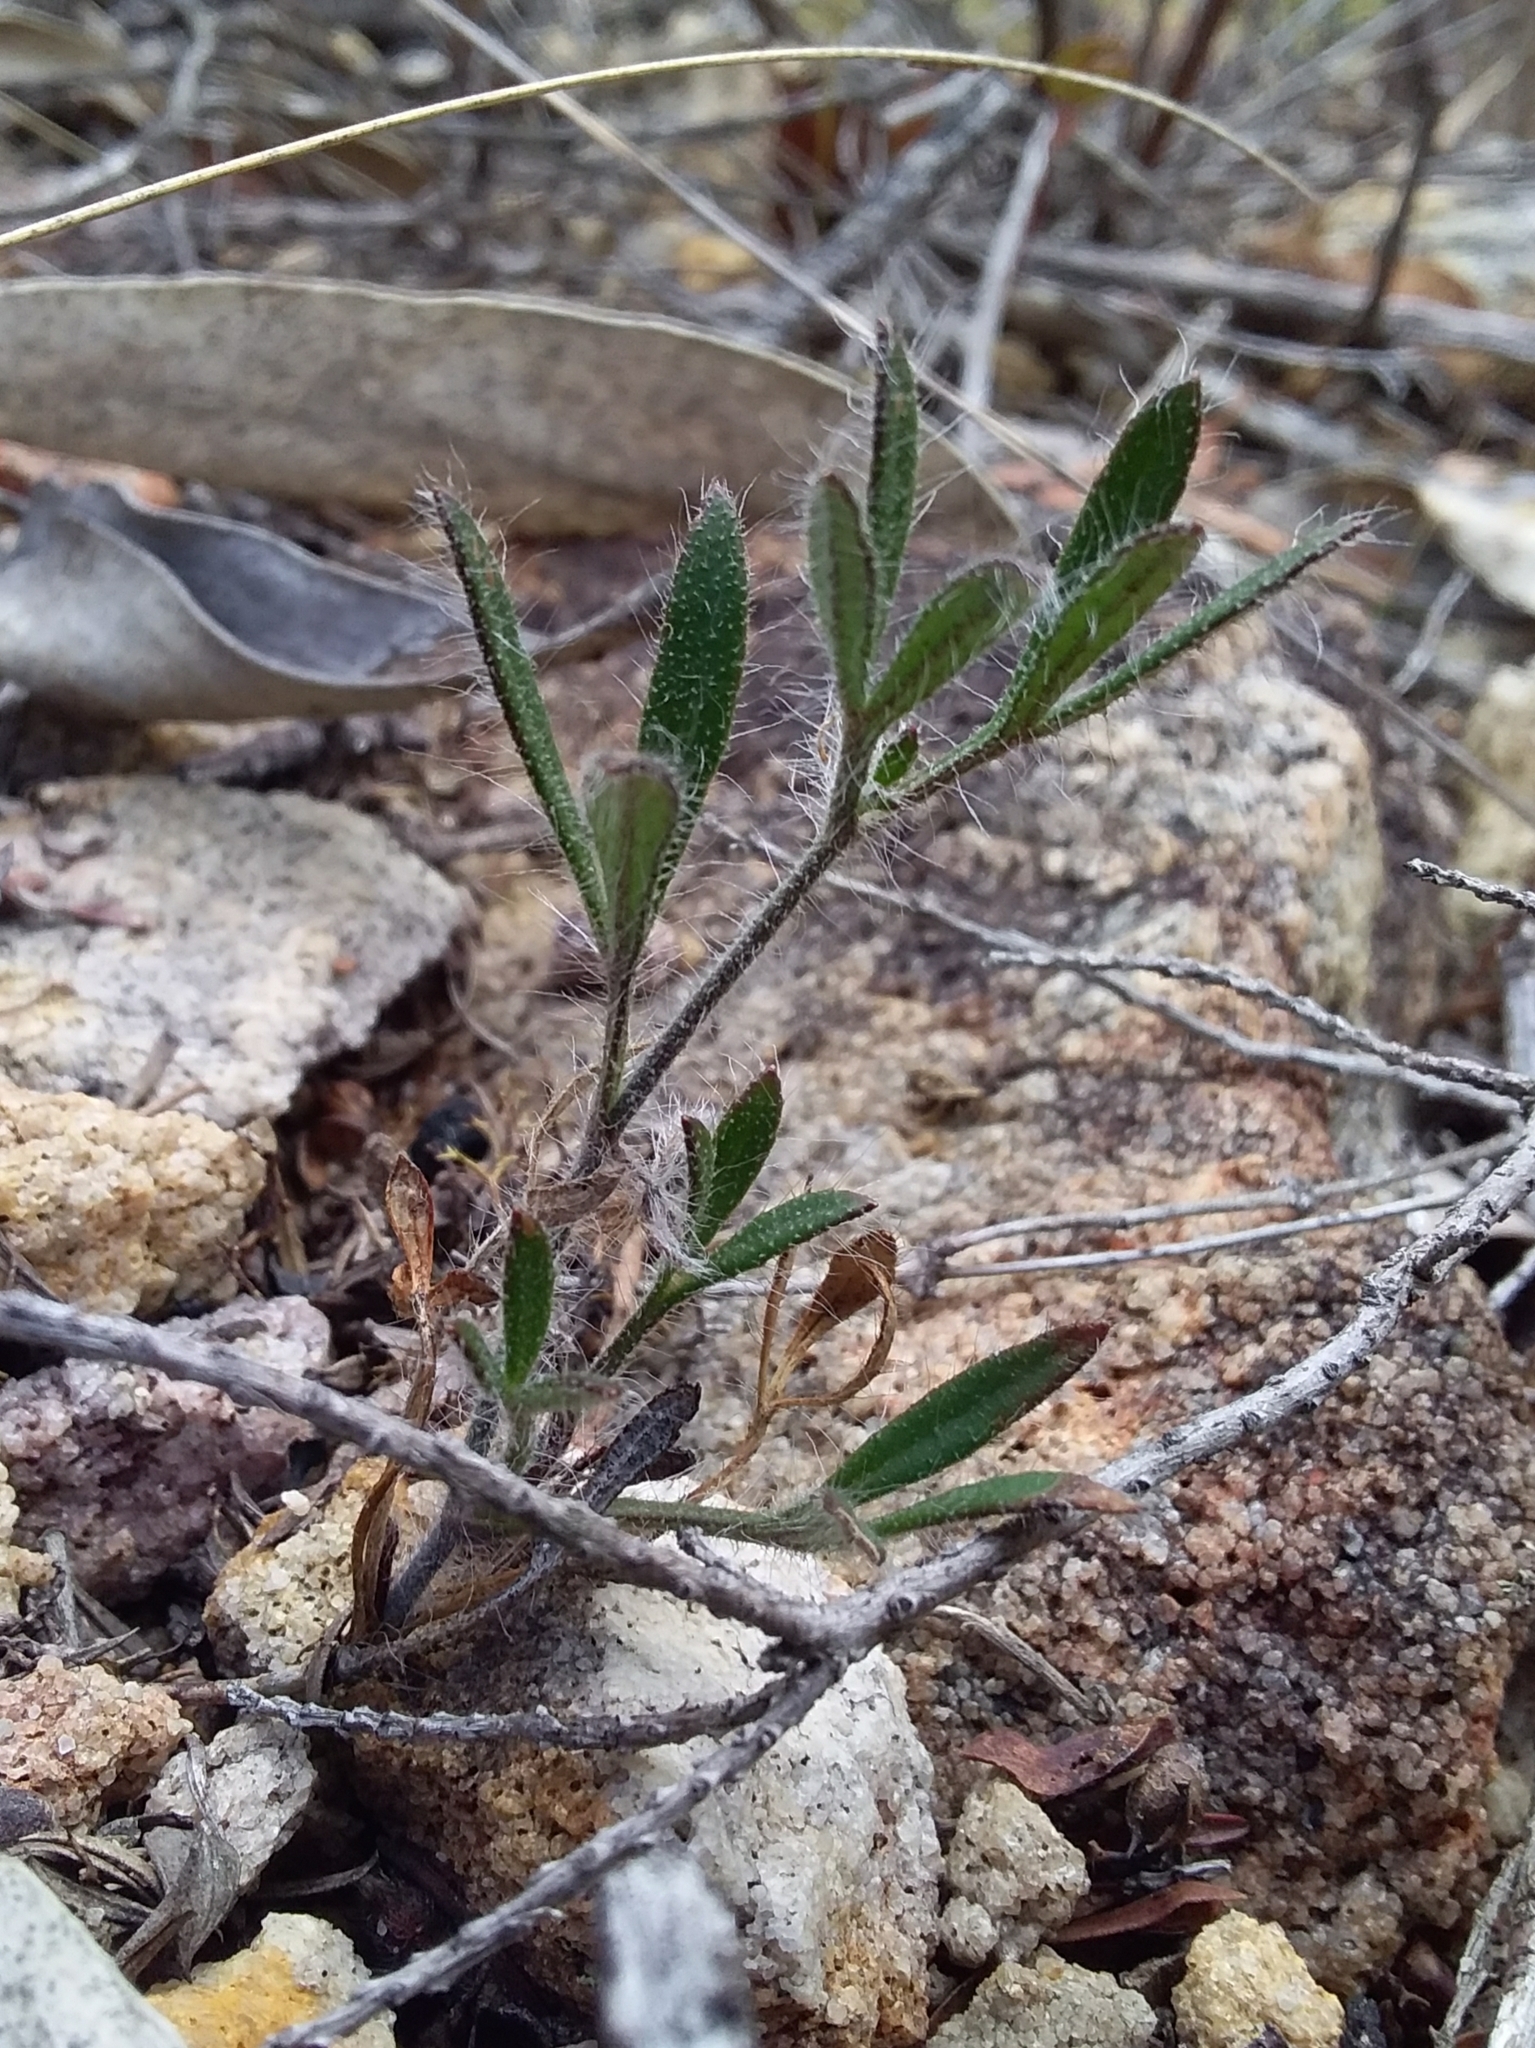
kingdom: Plantae
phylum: Tracheophyta
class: Magnoliopsida
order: Apiales
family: Apiaceae
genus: Xanthosia
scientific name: Xanthosia huegelii
